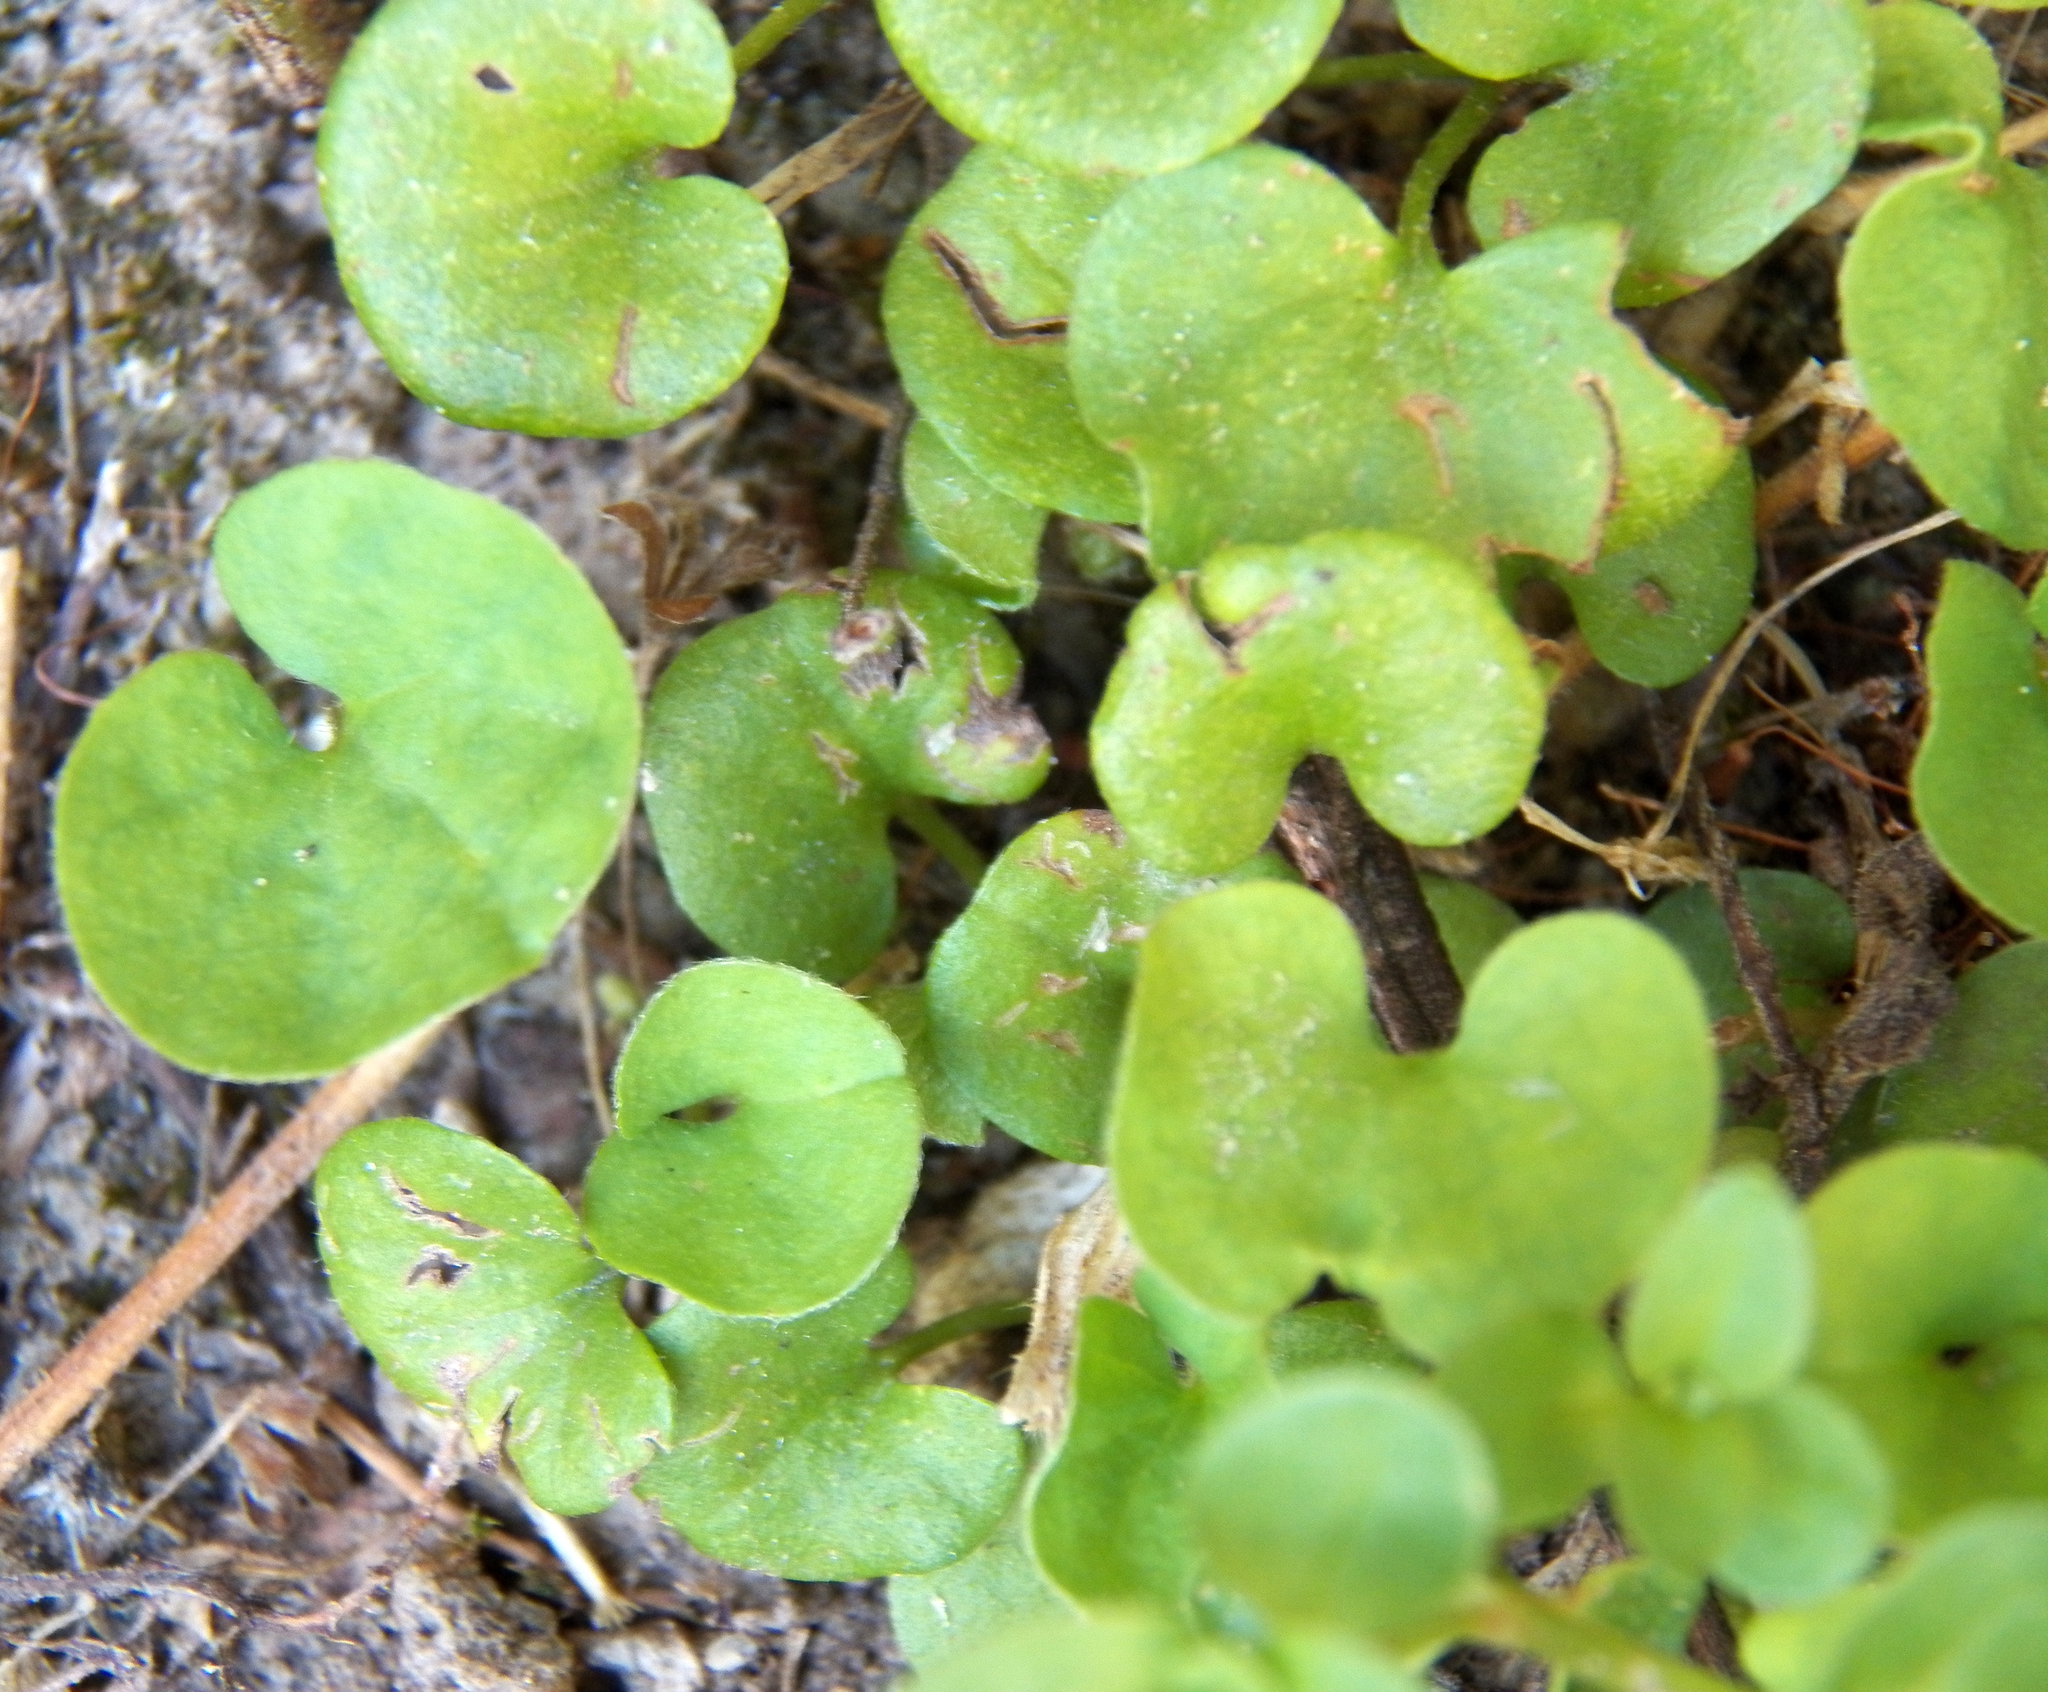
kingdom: Plantae
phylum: Tracheophyta
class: Magnoliopsida
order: Solanales
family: Convolvulaceae
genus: Dichondra
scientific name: Dichondra carolinensis
